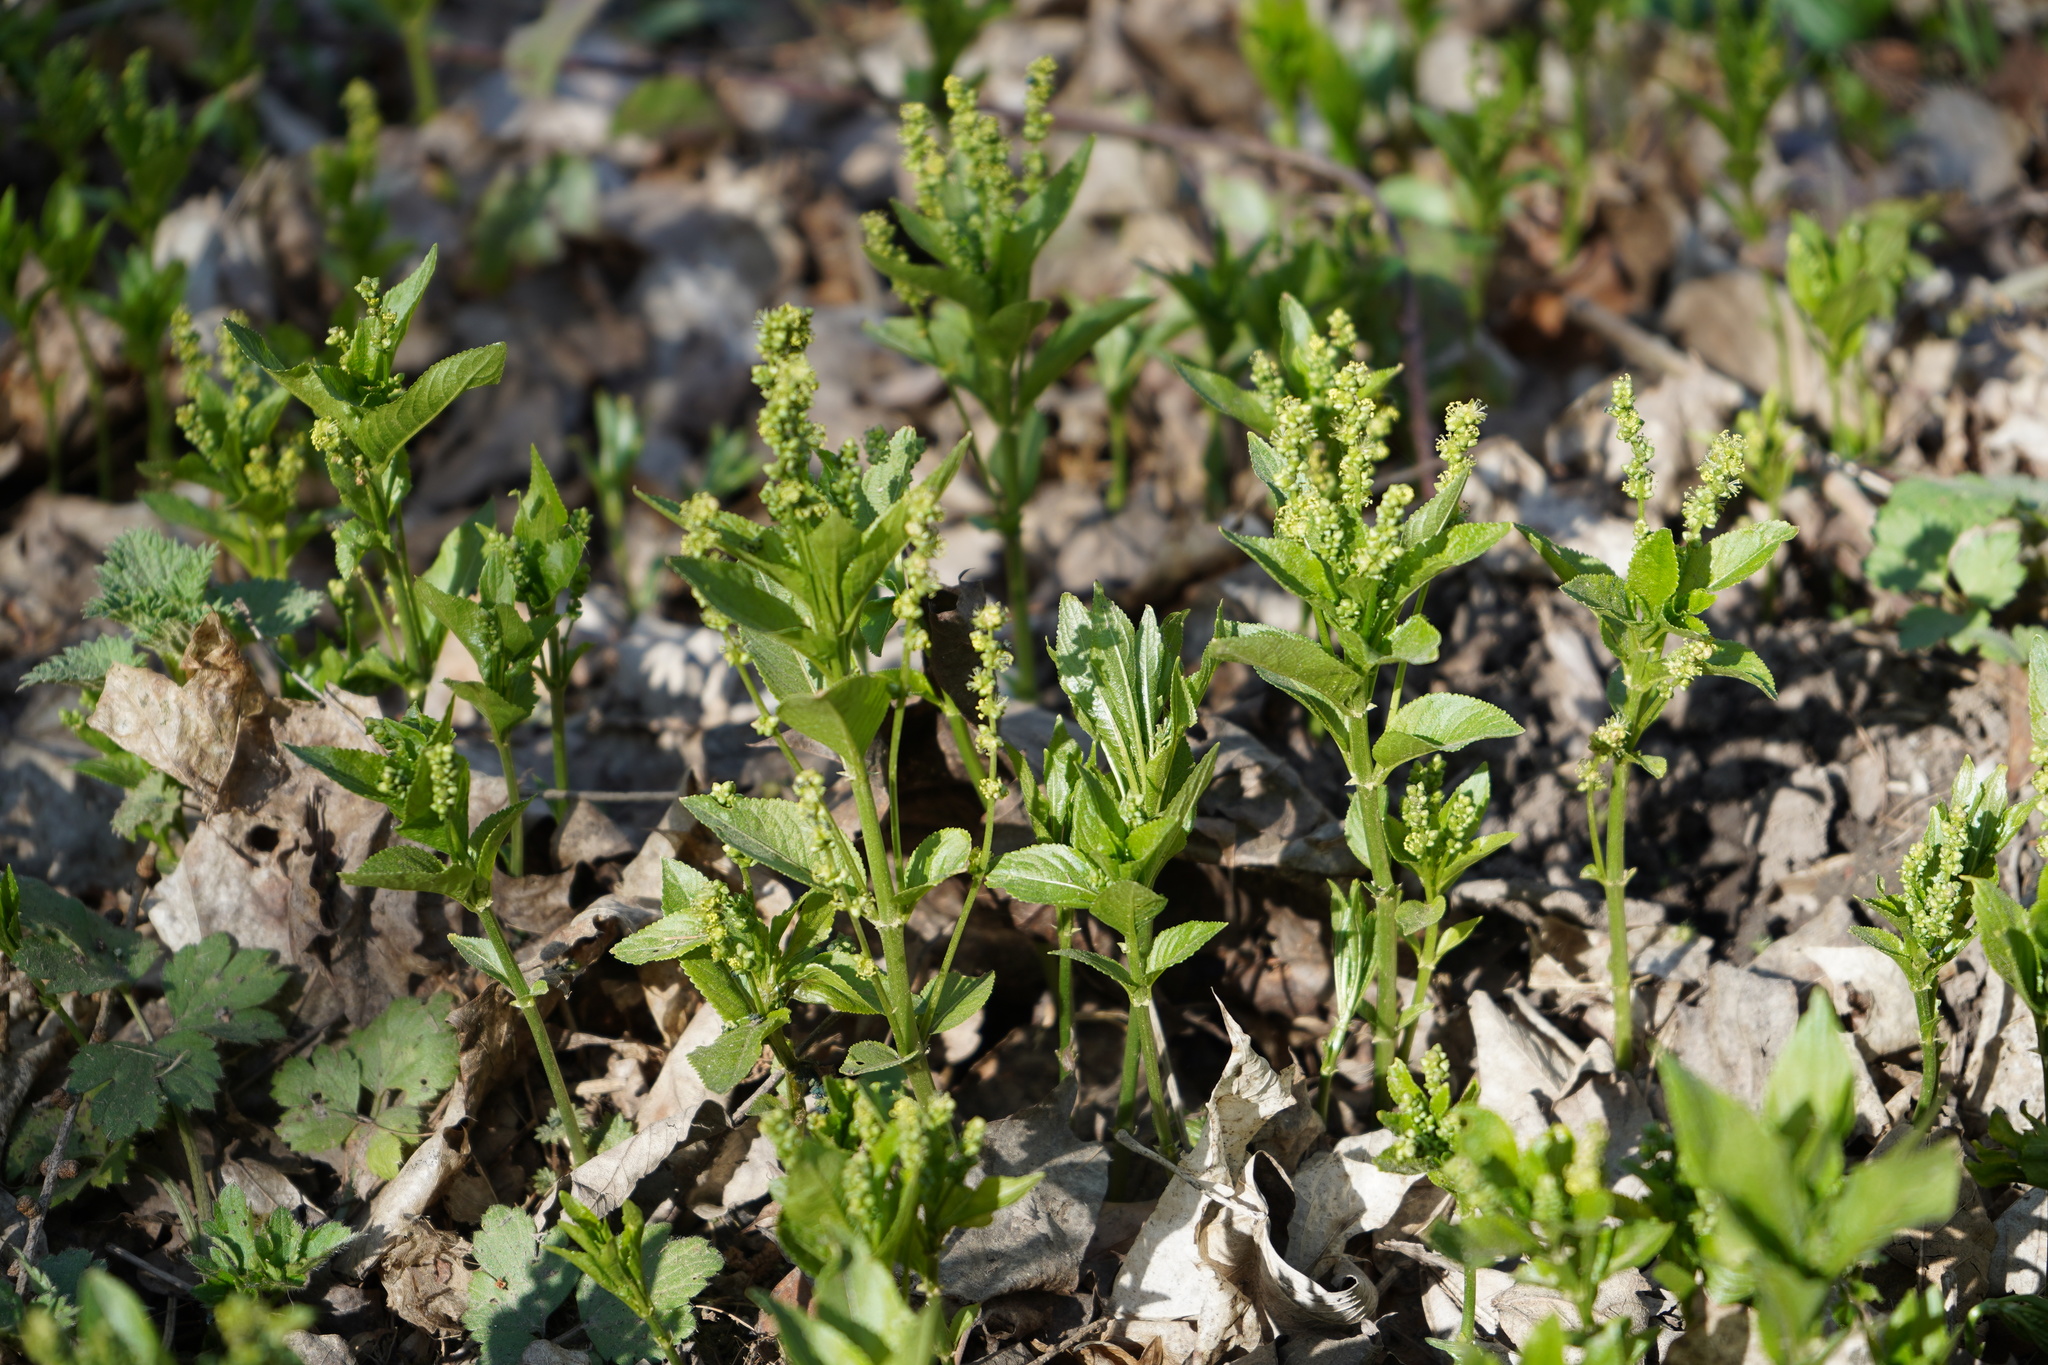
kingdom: Plantae
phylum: Tracheophyta
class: Magnoliopsida
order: Malpighiales
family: Euphorbiaceae
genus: Mercurialis
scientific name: Mercurialis perennis
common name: Dog mercury
